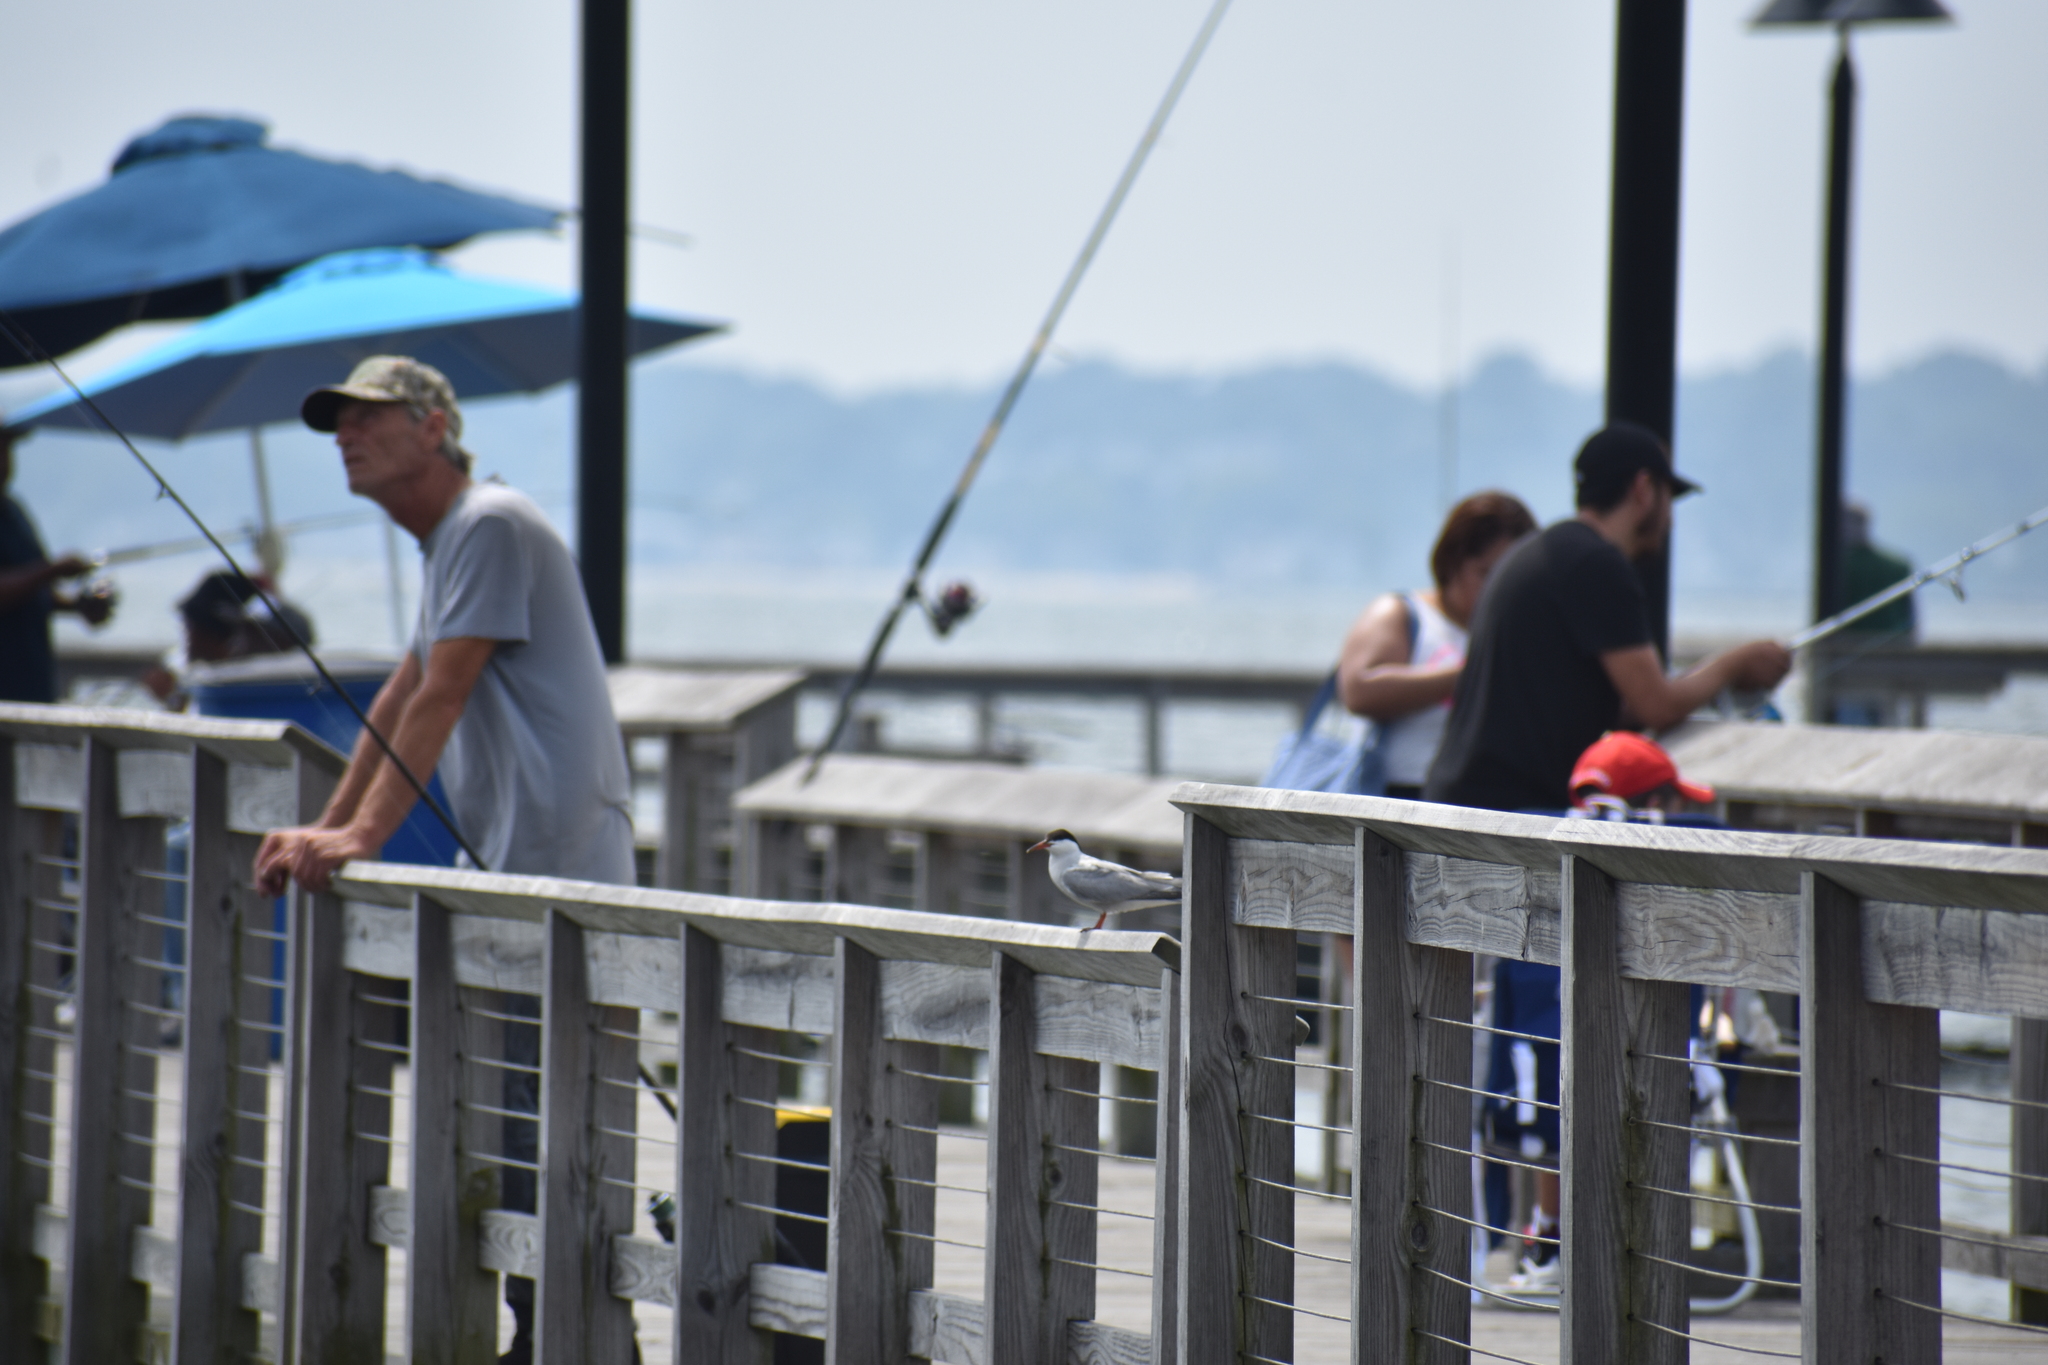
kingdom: Animalia
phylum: Chordata
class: Aves
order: Charadriiformes
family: Laridae
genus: Sterna
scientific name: Sterna hirundo
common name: Common tern
